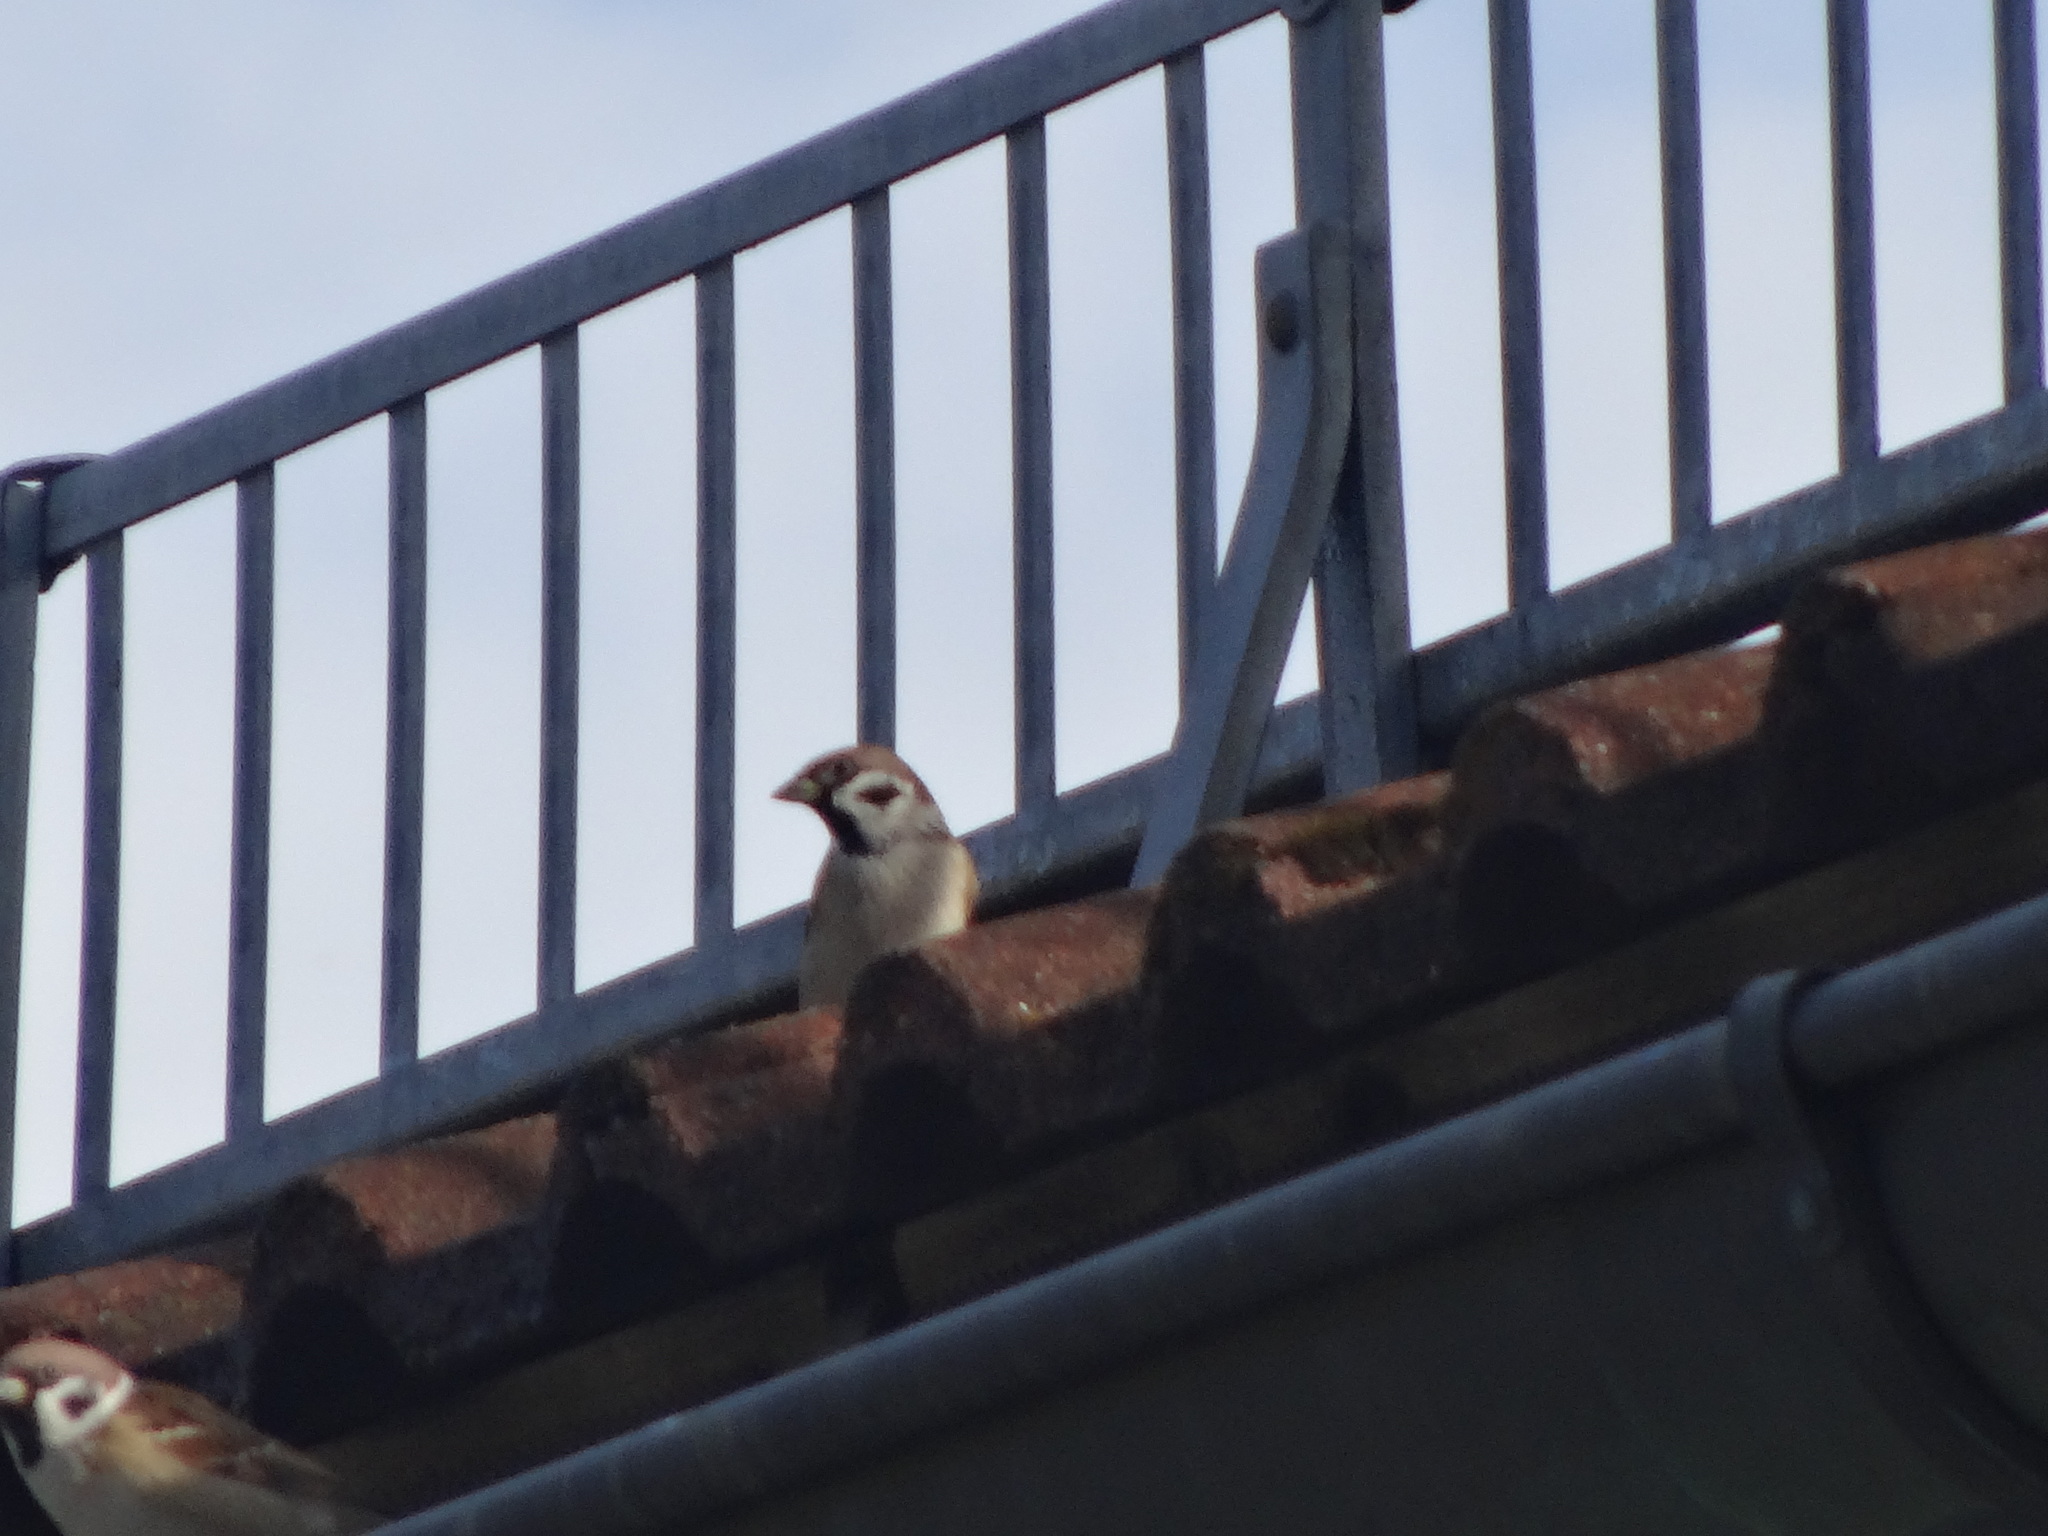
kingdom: Animalia
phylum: Chordata
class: Aves
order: Passeriformes
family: Passeridae
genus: Passer
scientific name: Passer montanus
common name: Eurasian tree sparrow
